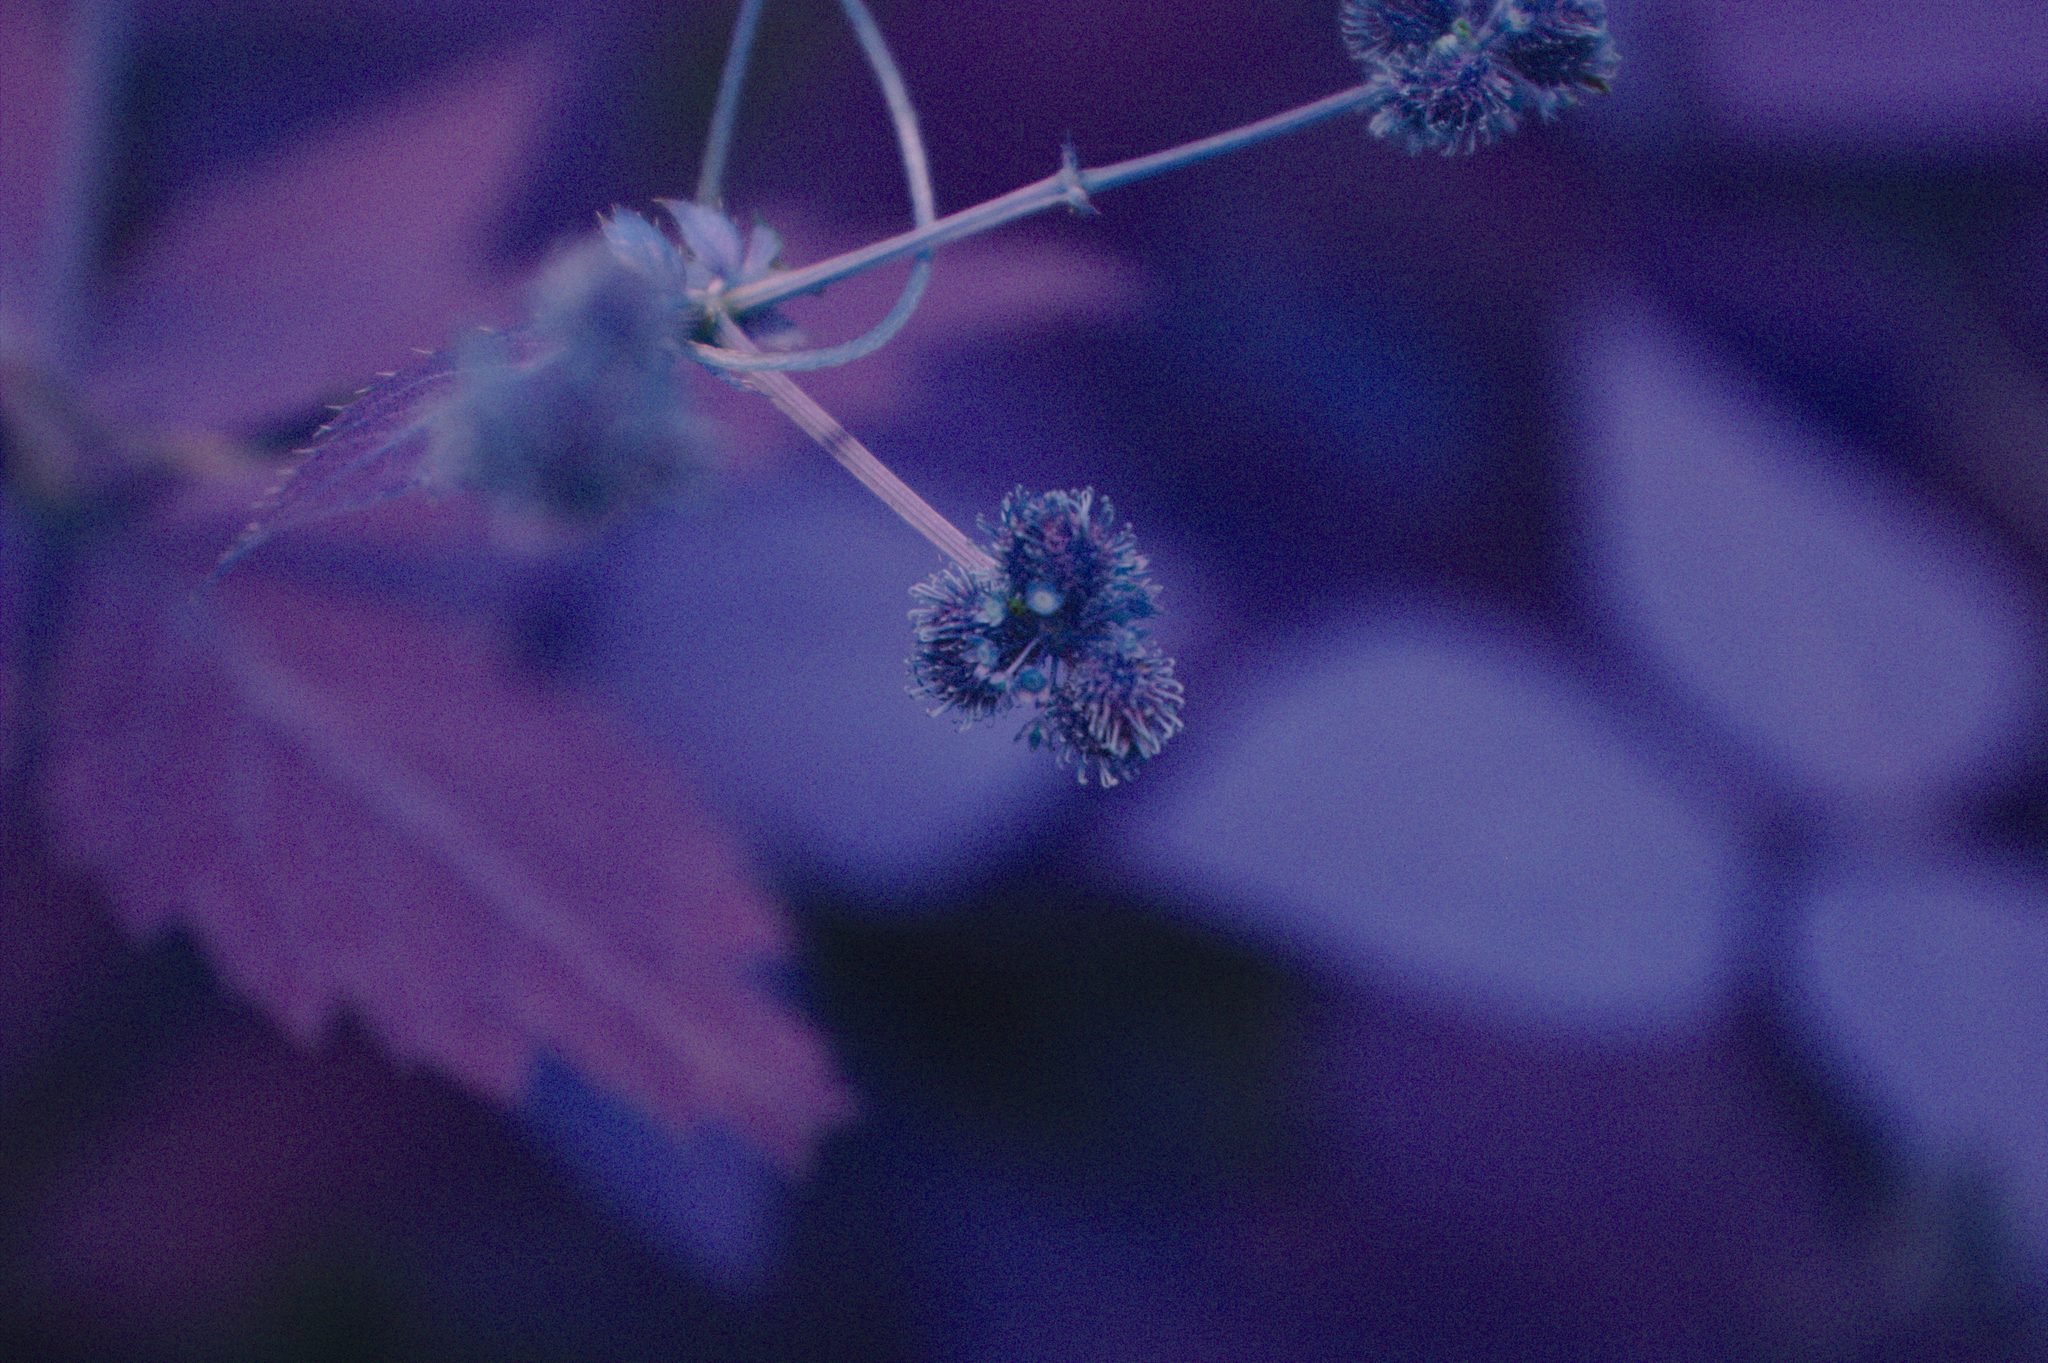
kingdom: Plantae
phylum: Tracheophyta
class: Magnoliopsida
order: Apiales
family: Apiaceae
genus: Sanicula
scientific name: Sanicula odorata
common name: Cluster sanicle
